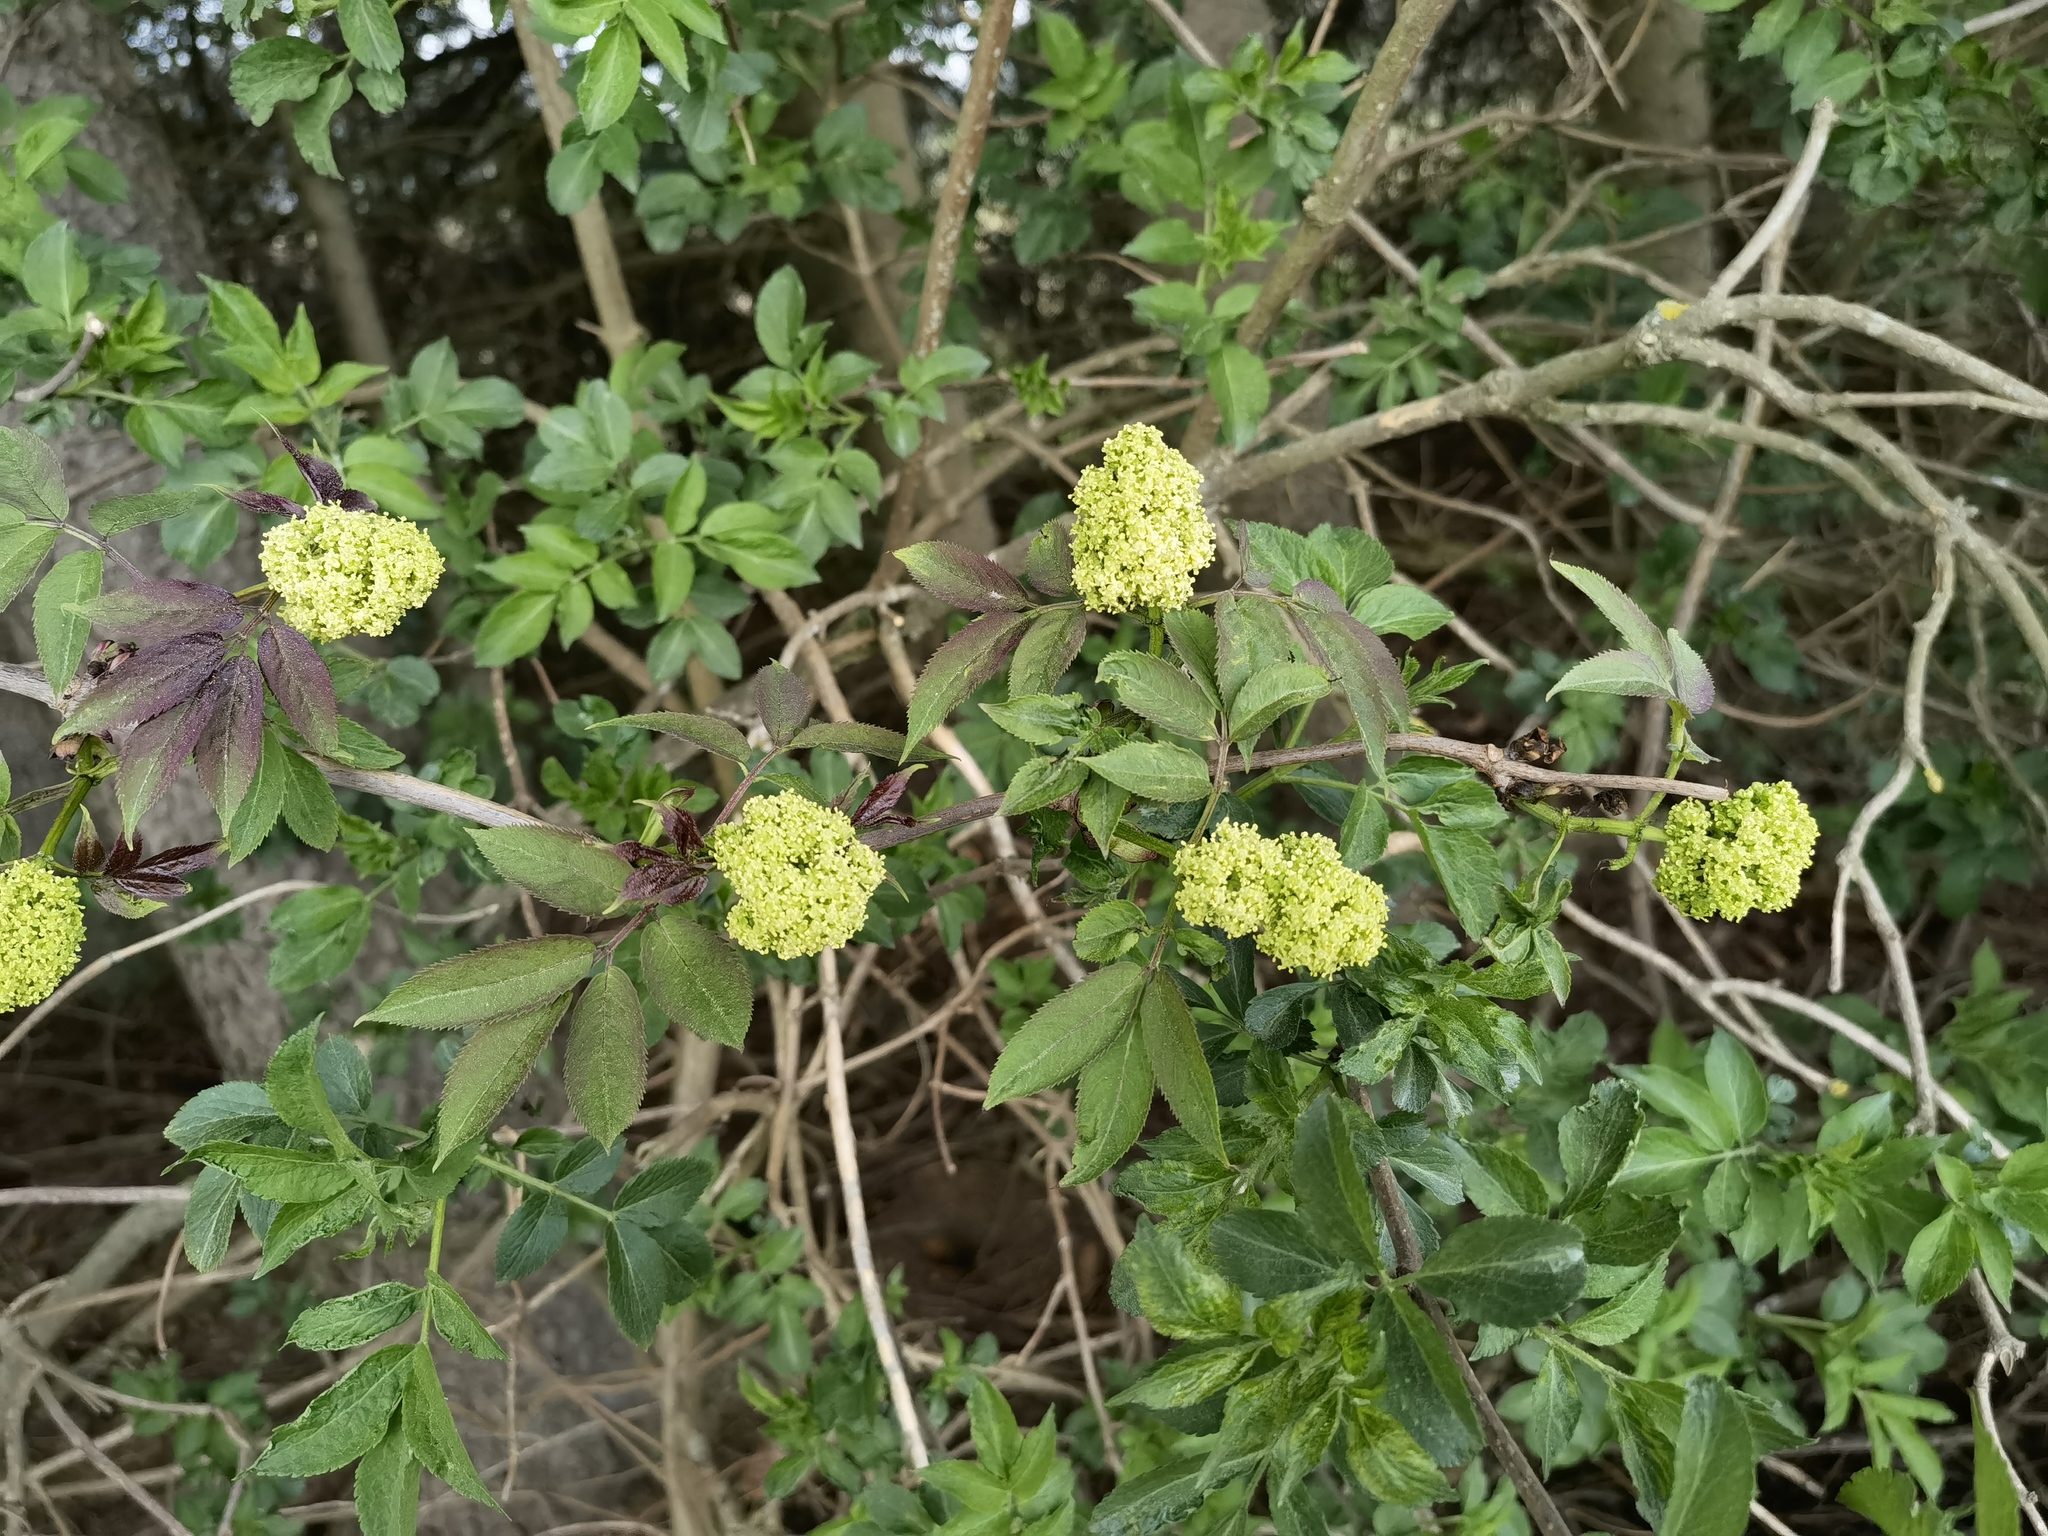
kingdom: Plantae
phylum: Tracheophyta
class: Magnoliopsida
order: Dipsacales
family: Viburnaceae
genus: Sambucus
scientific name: Sambucus racemosa
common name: Red-berried elder
